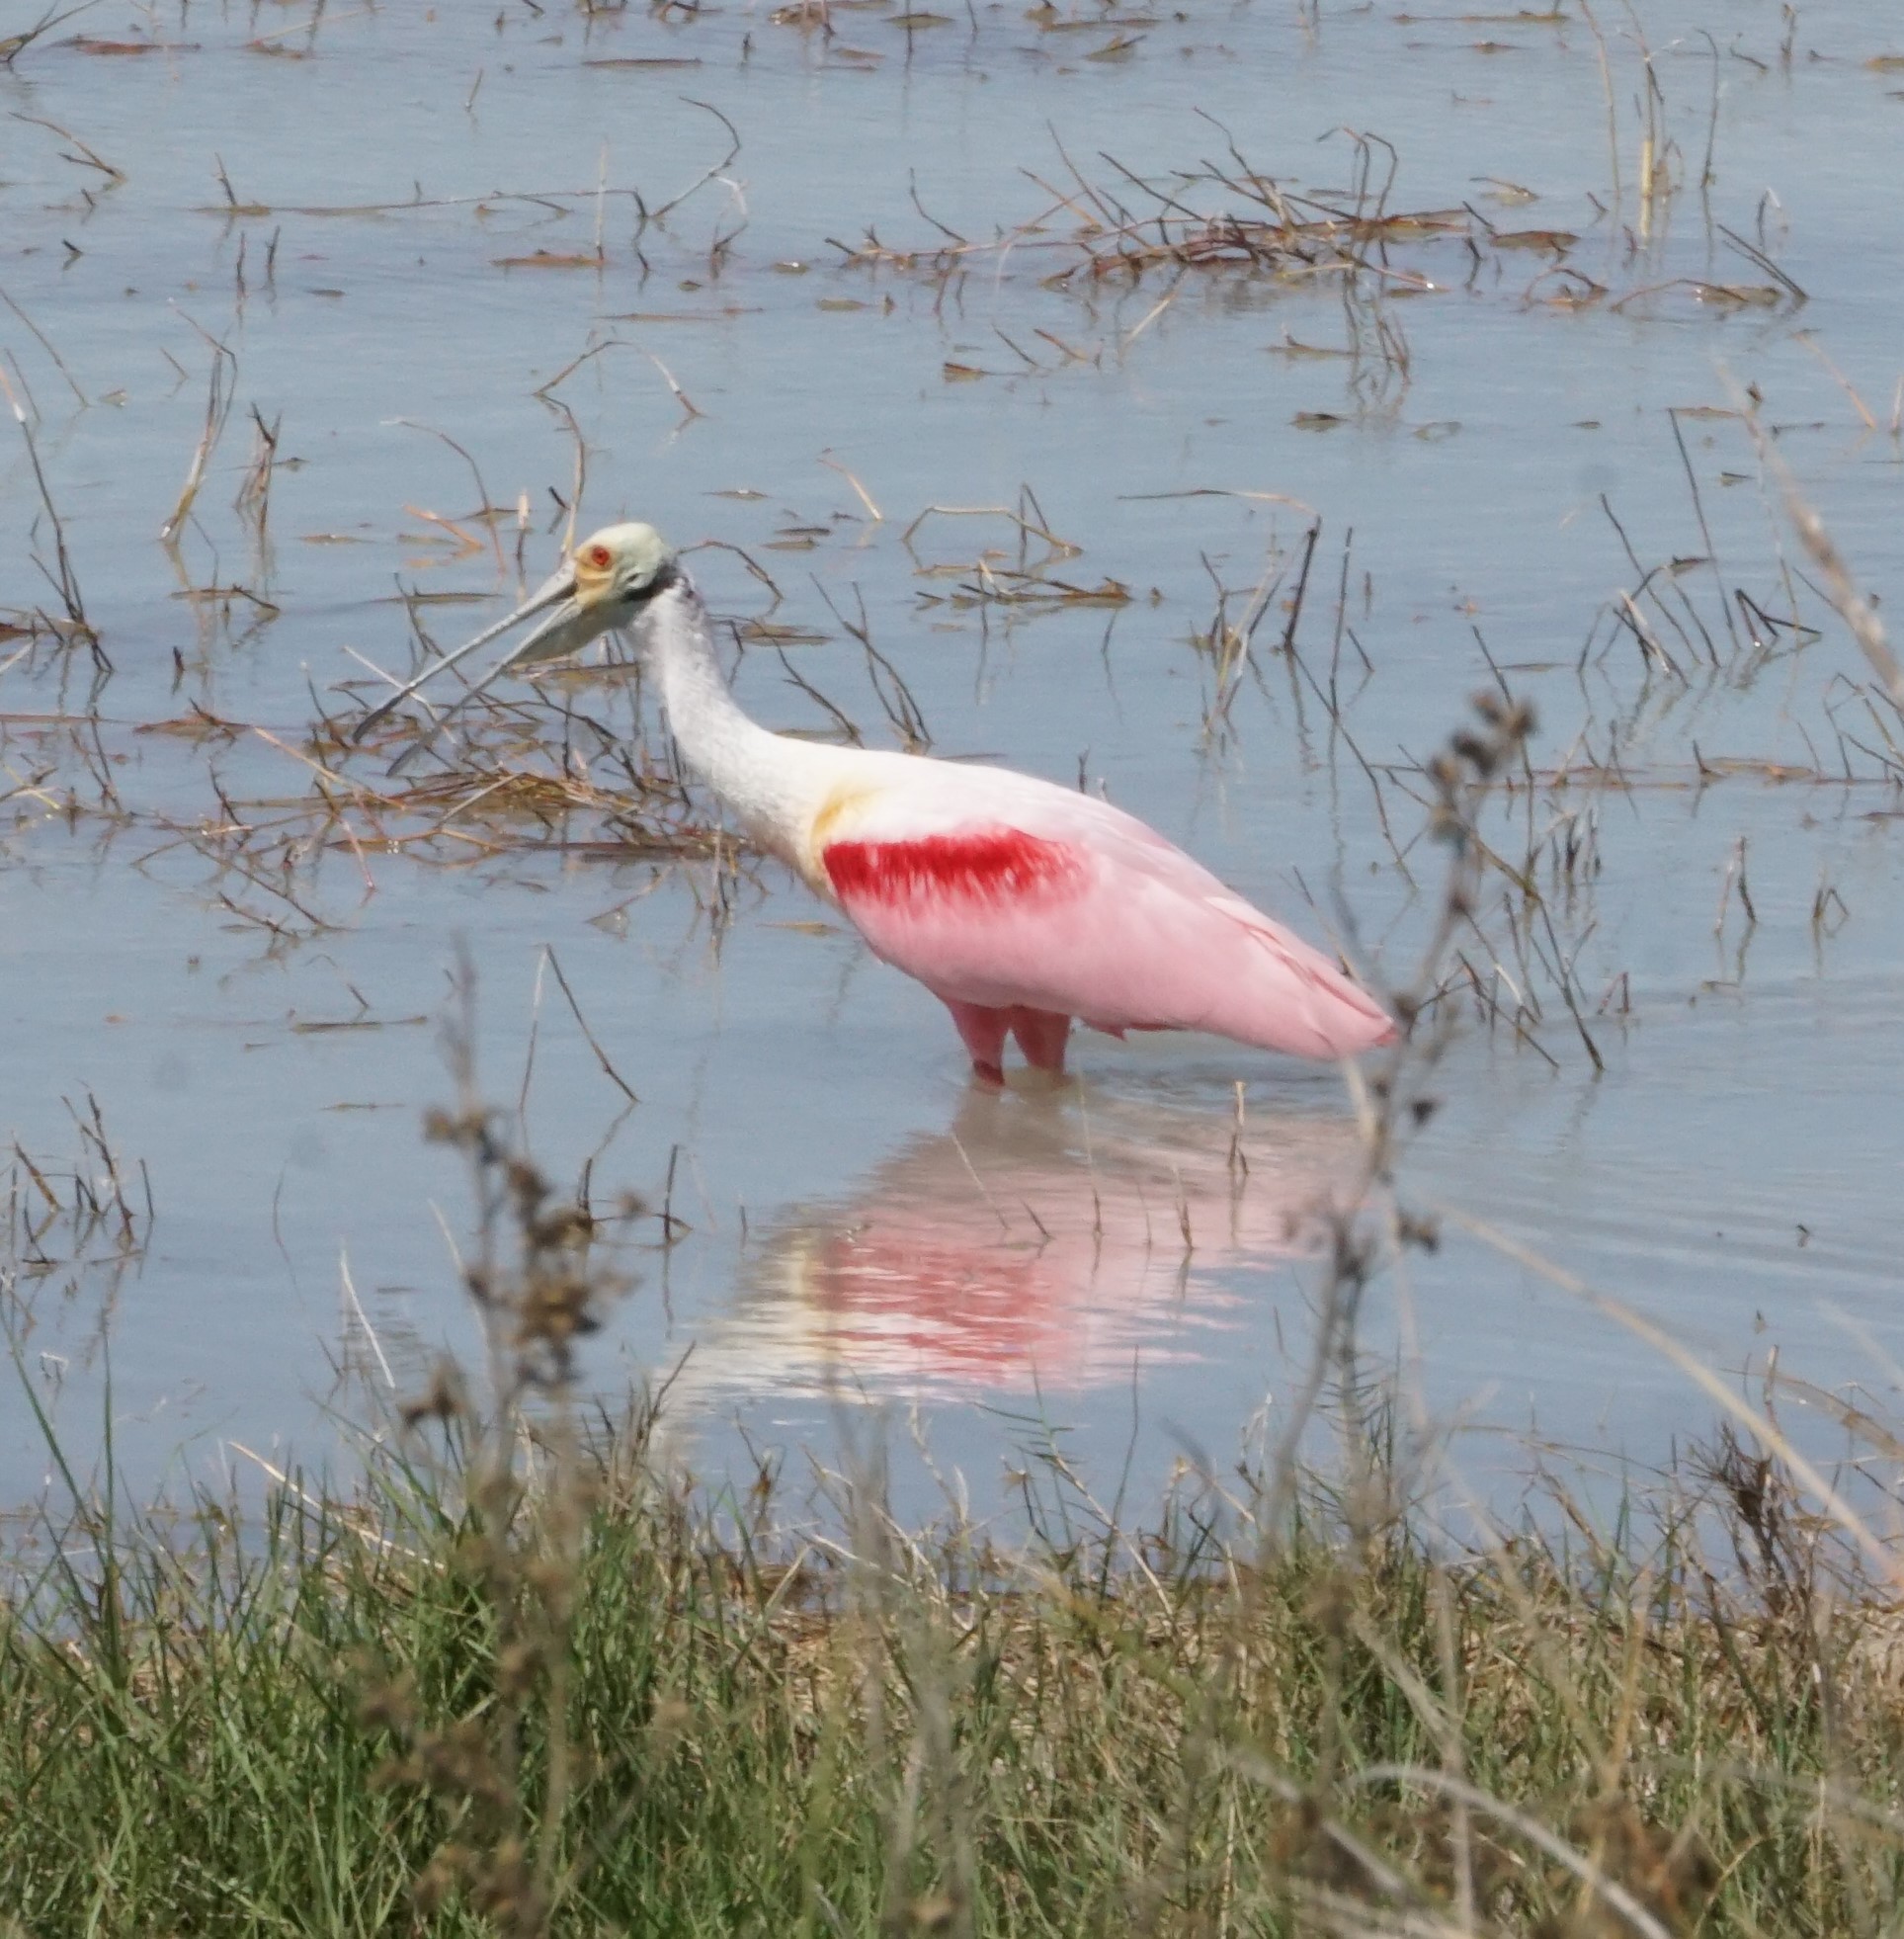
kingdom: Animalia
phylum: Chordata
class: Aves
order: Pelecaniformes
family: Threskiornithidae
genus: Platalea
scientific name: Platalea ajaja
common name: Roseate spoonbill
